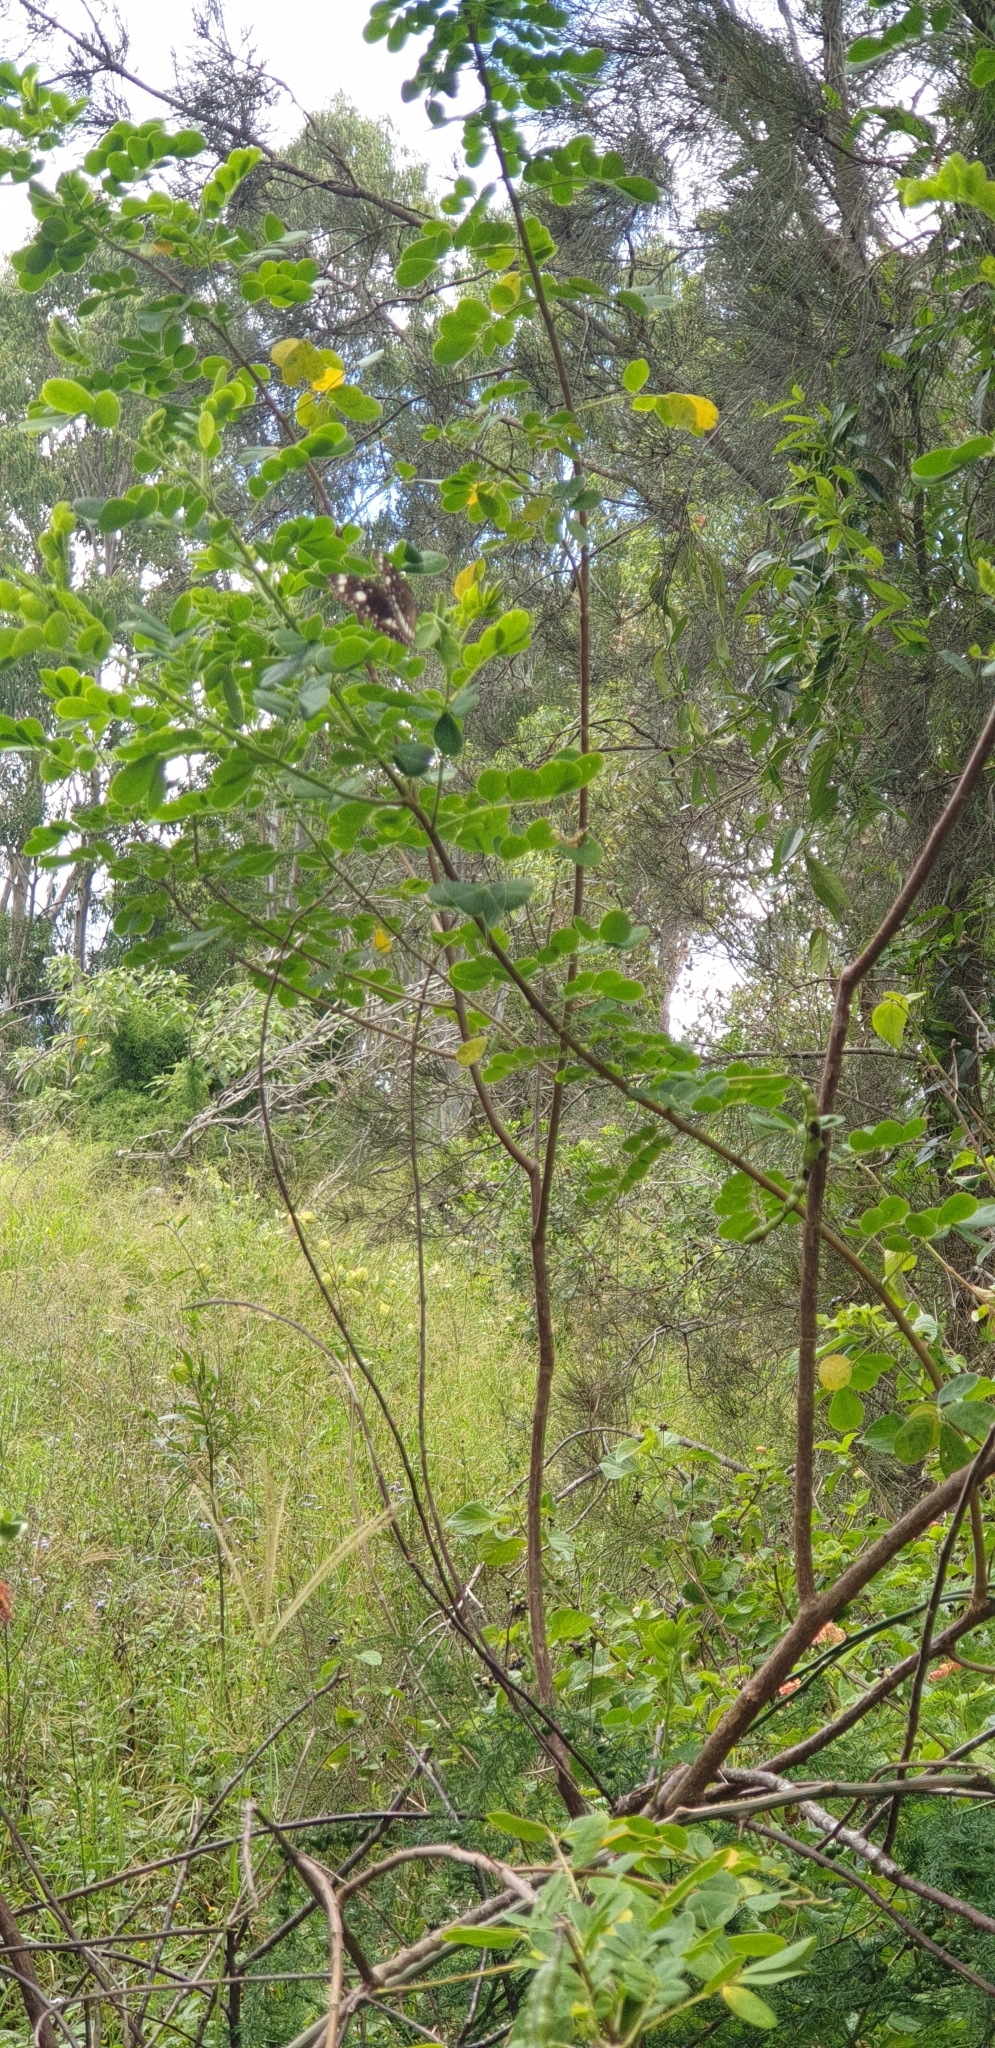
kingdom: Animalia
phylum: Arthropoda
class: Insecta
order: Lepidoptera
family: Nymphalidae
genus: Euploea
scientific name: Euploea core
